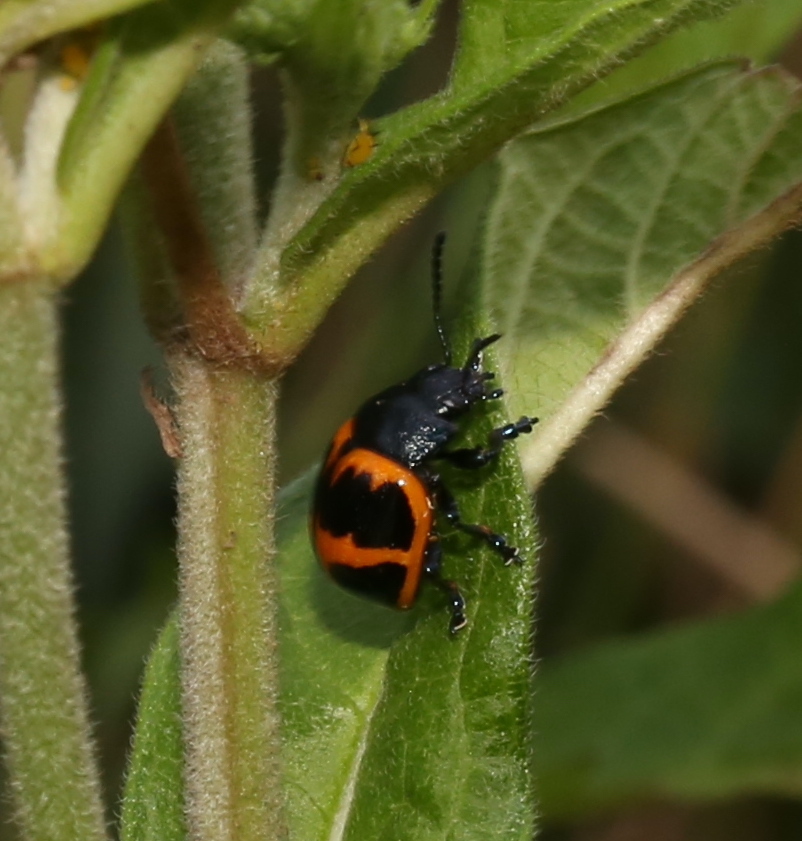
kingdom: Animalia
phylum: Arthropoda
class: Insecta
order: Coleoptera
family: Chrysomelidae
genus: Labidomera
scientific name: Labidomera clivicollis
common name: Swamp milkweed leaf beetle
